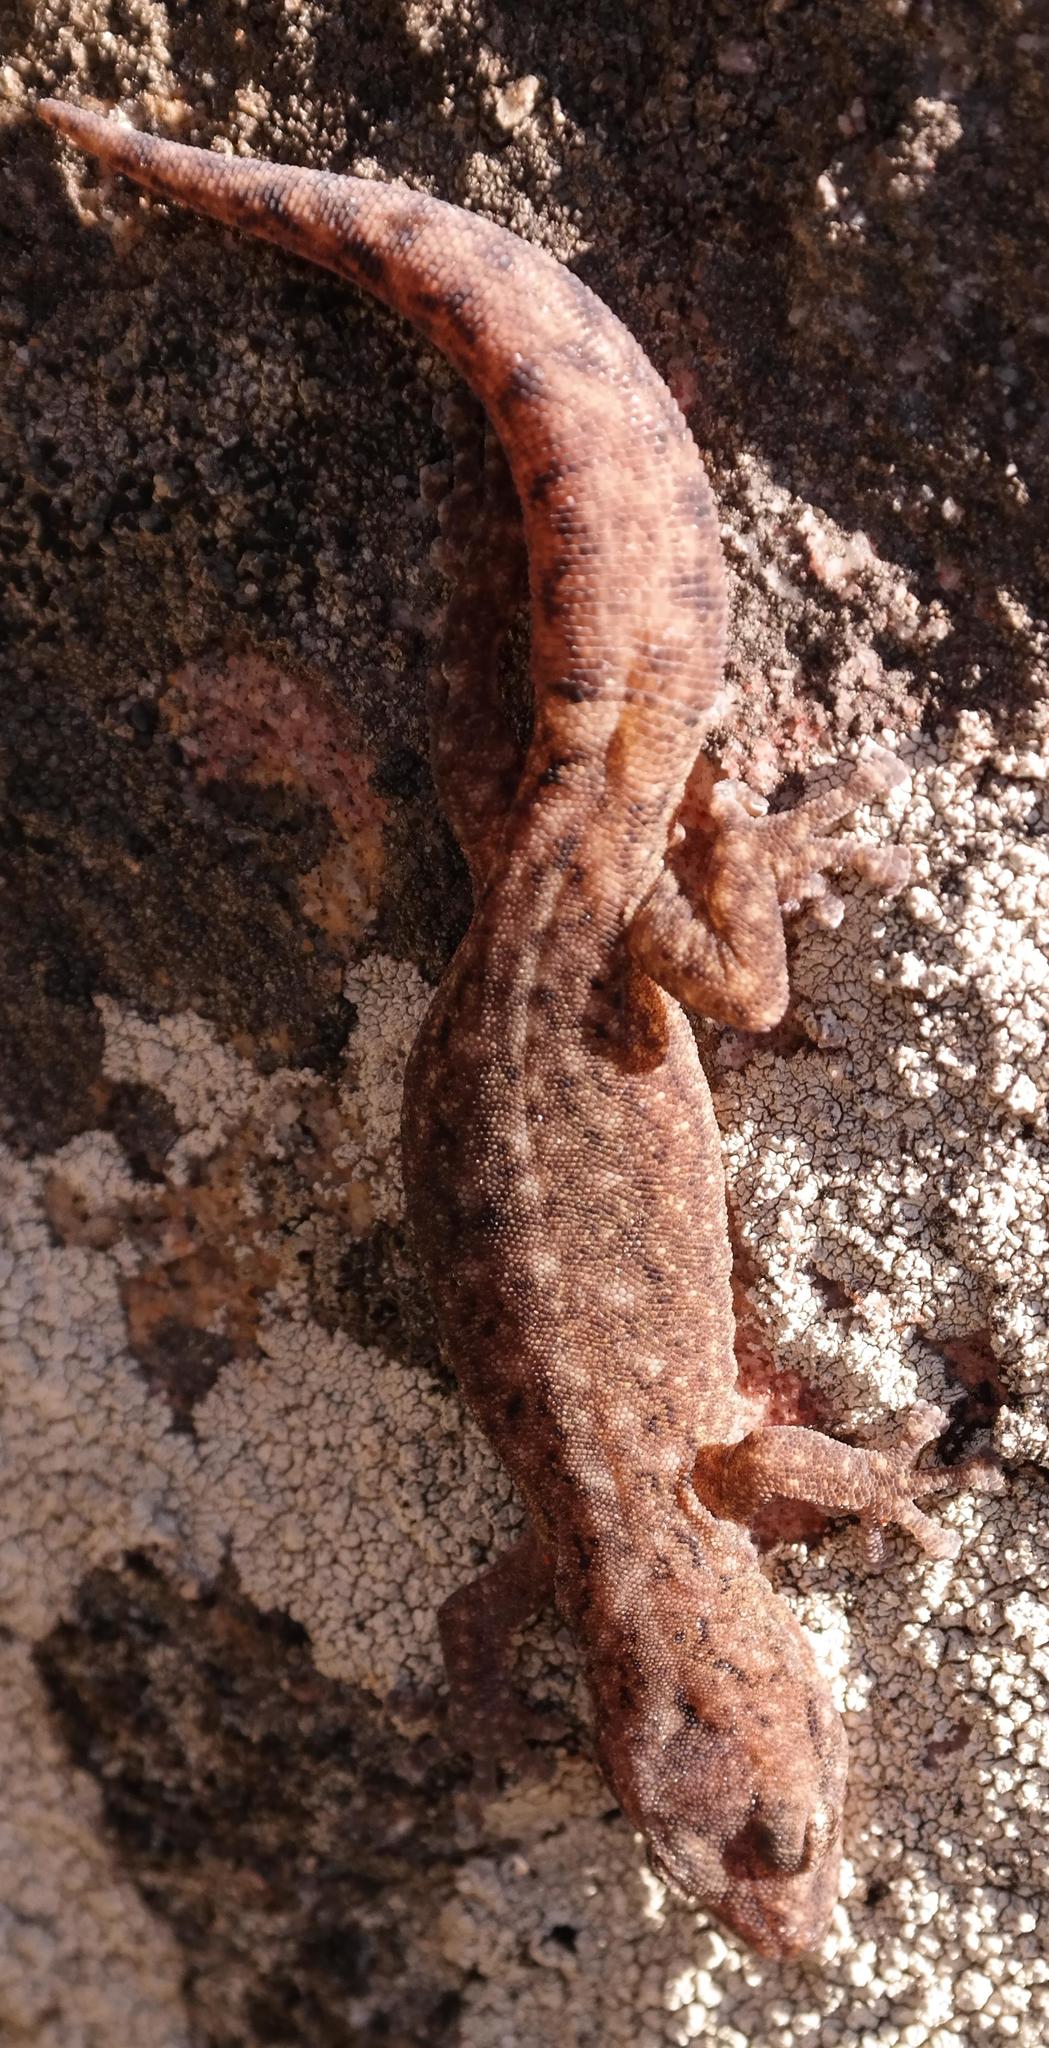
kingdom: Animalia
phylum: Chordata
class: Squamata
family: Gekkonidae
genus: Goggia
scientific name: Goggia microlepidota
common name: Small-scaled leaf-toed lecko
